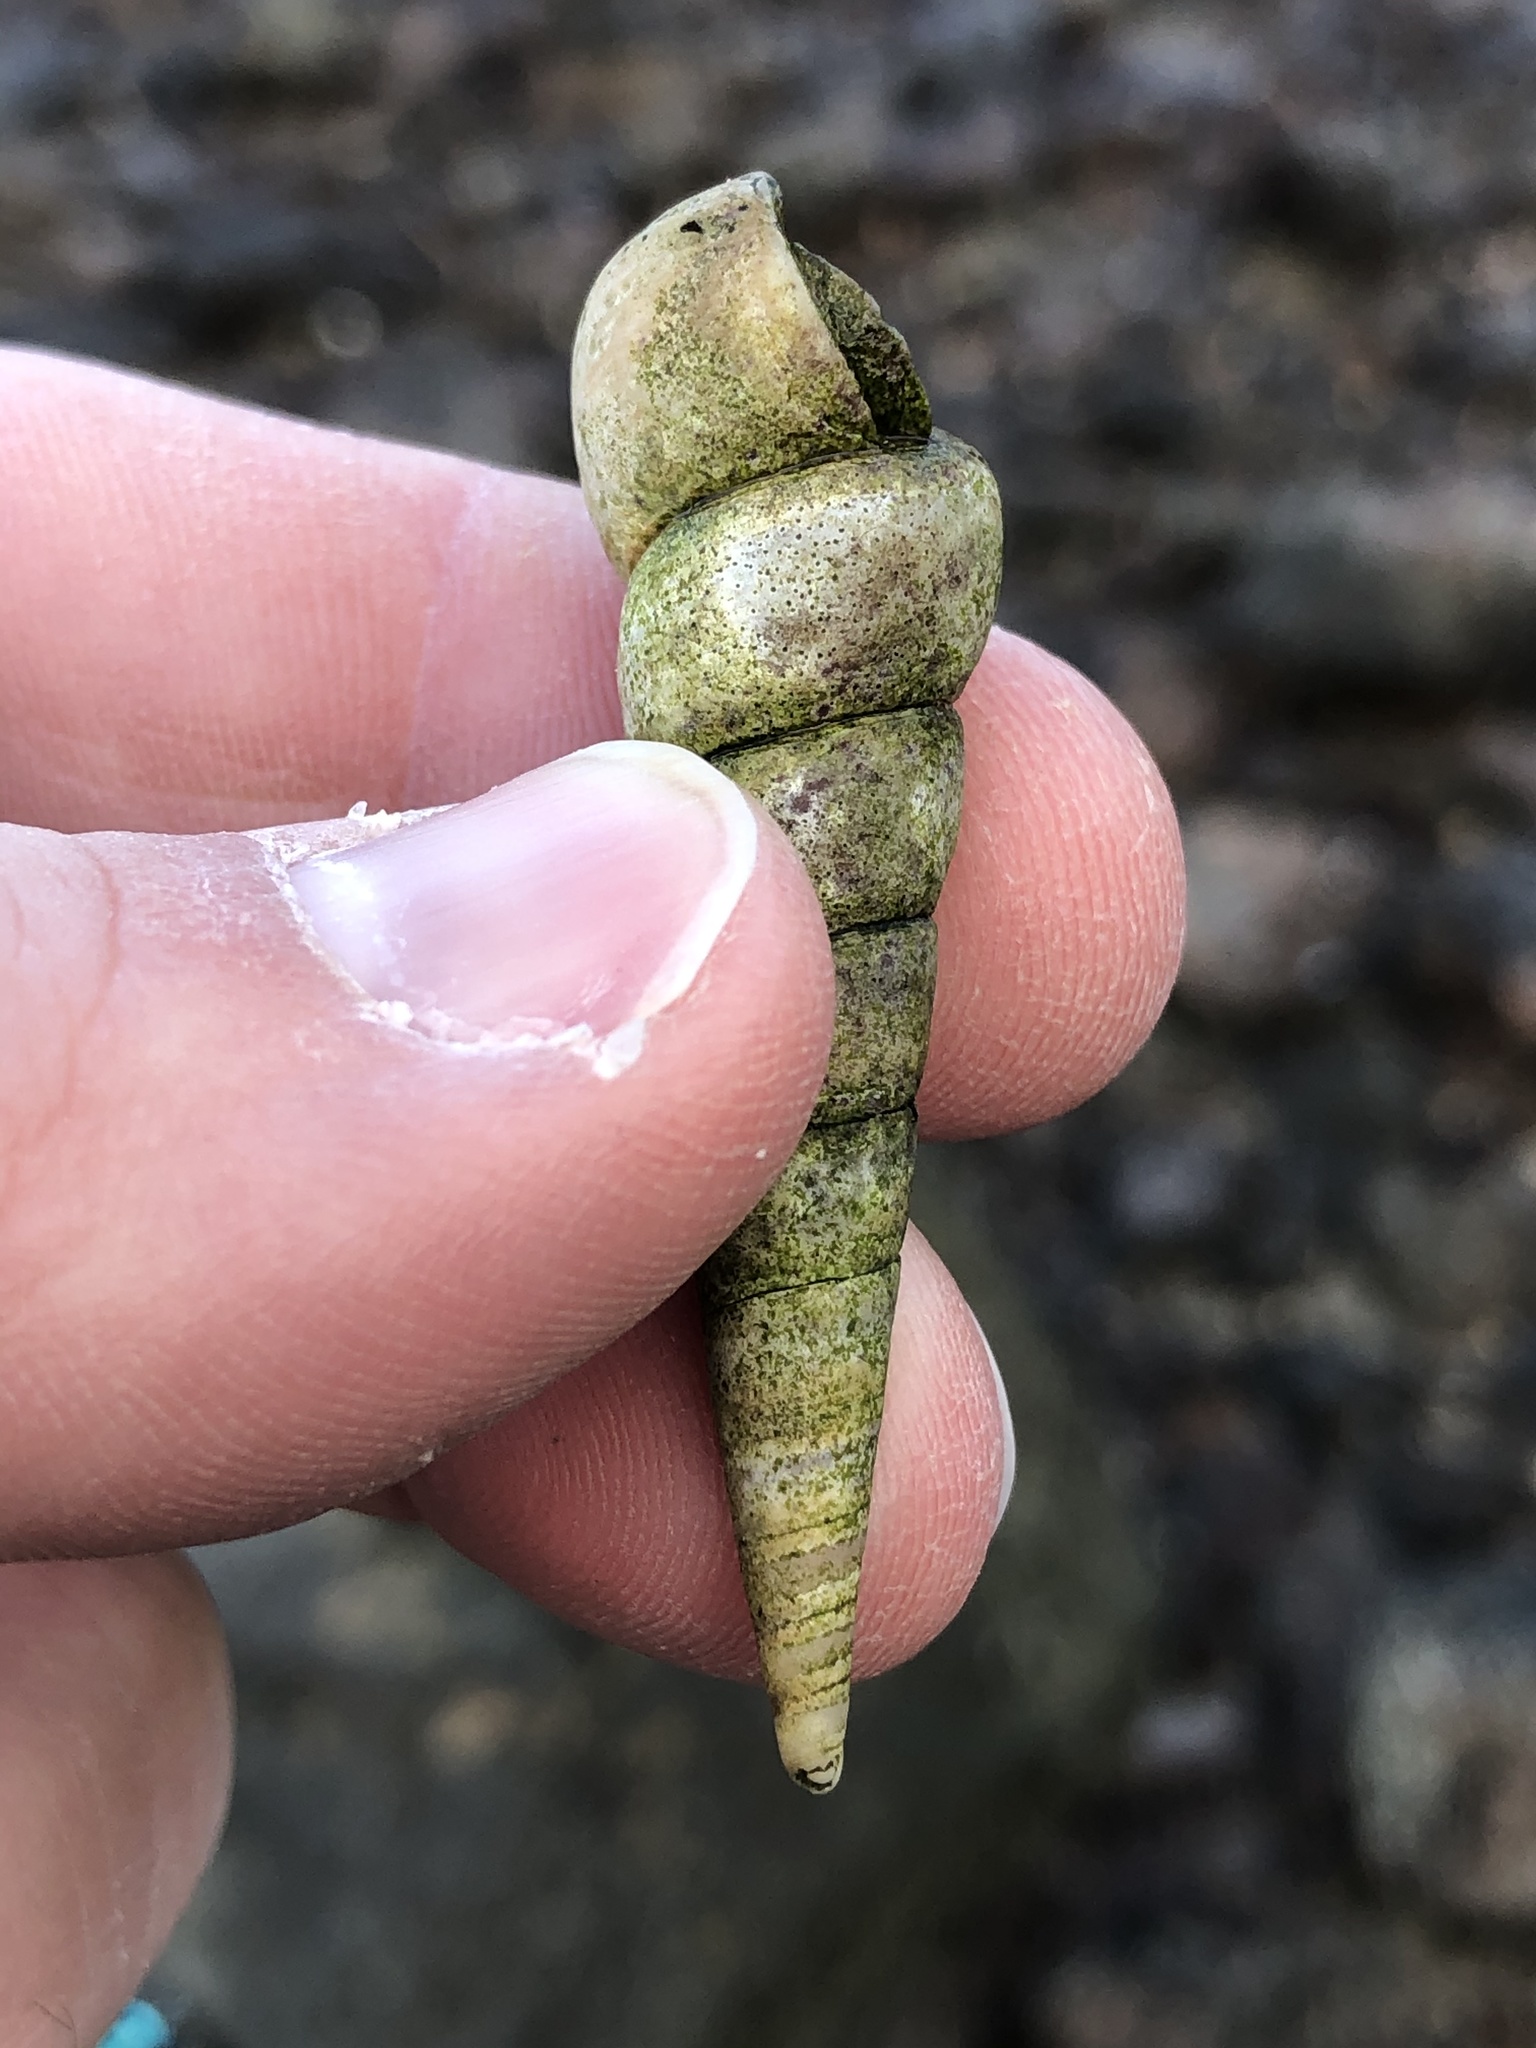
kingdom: Animalia
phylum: Mollusca
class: Gastropoda
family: Turritellidae
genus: Maoricolpus
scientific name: Maoricolpus roseus
